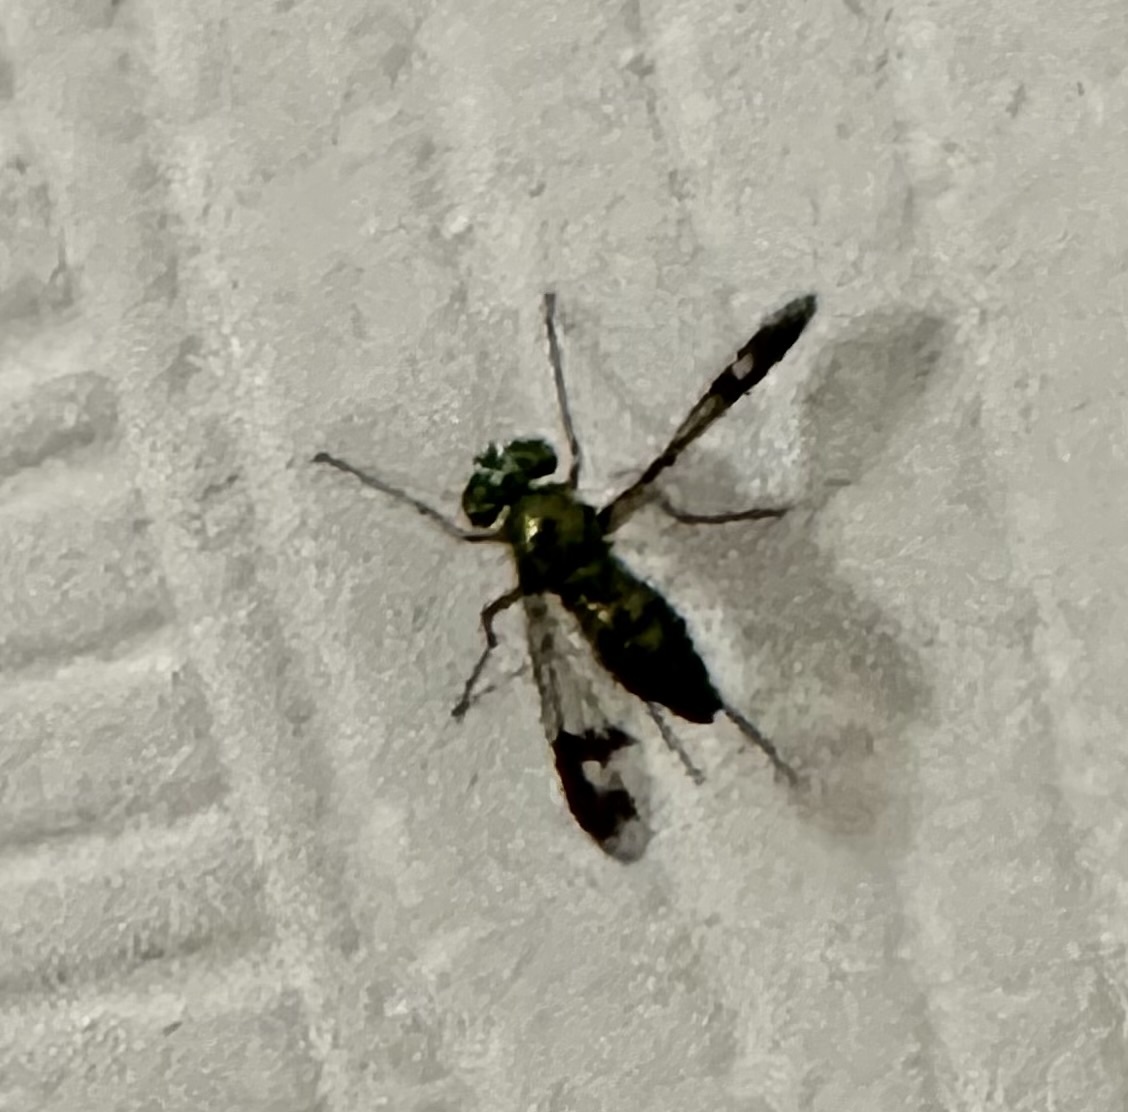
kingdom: Animalia
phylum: Arthropoda
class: Insecta
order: Diptera
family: Dolichopodidae
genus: Condylostylus
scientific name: Condylostylus patibulatus
